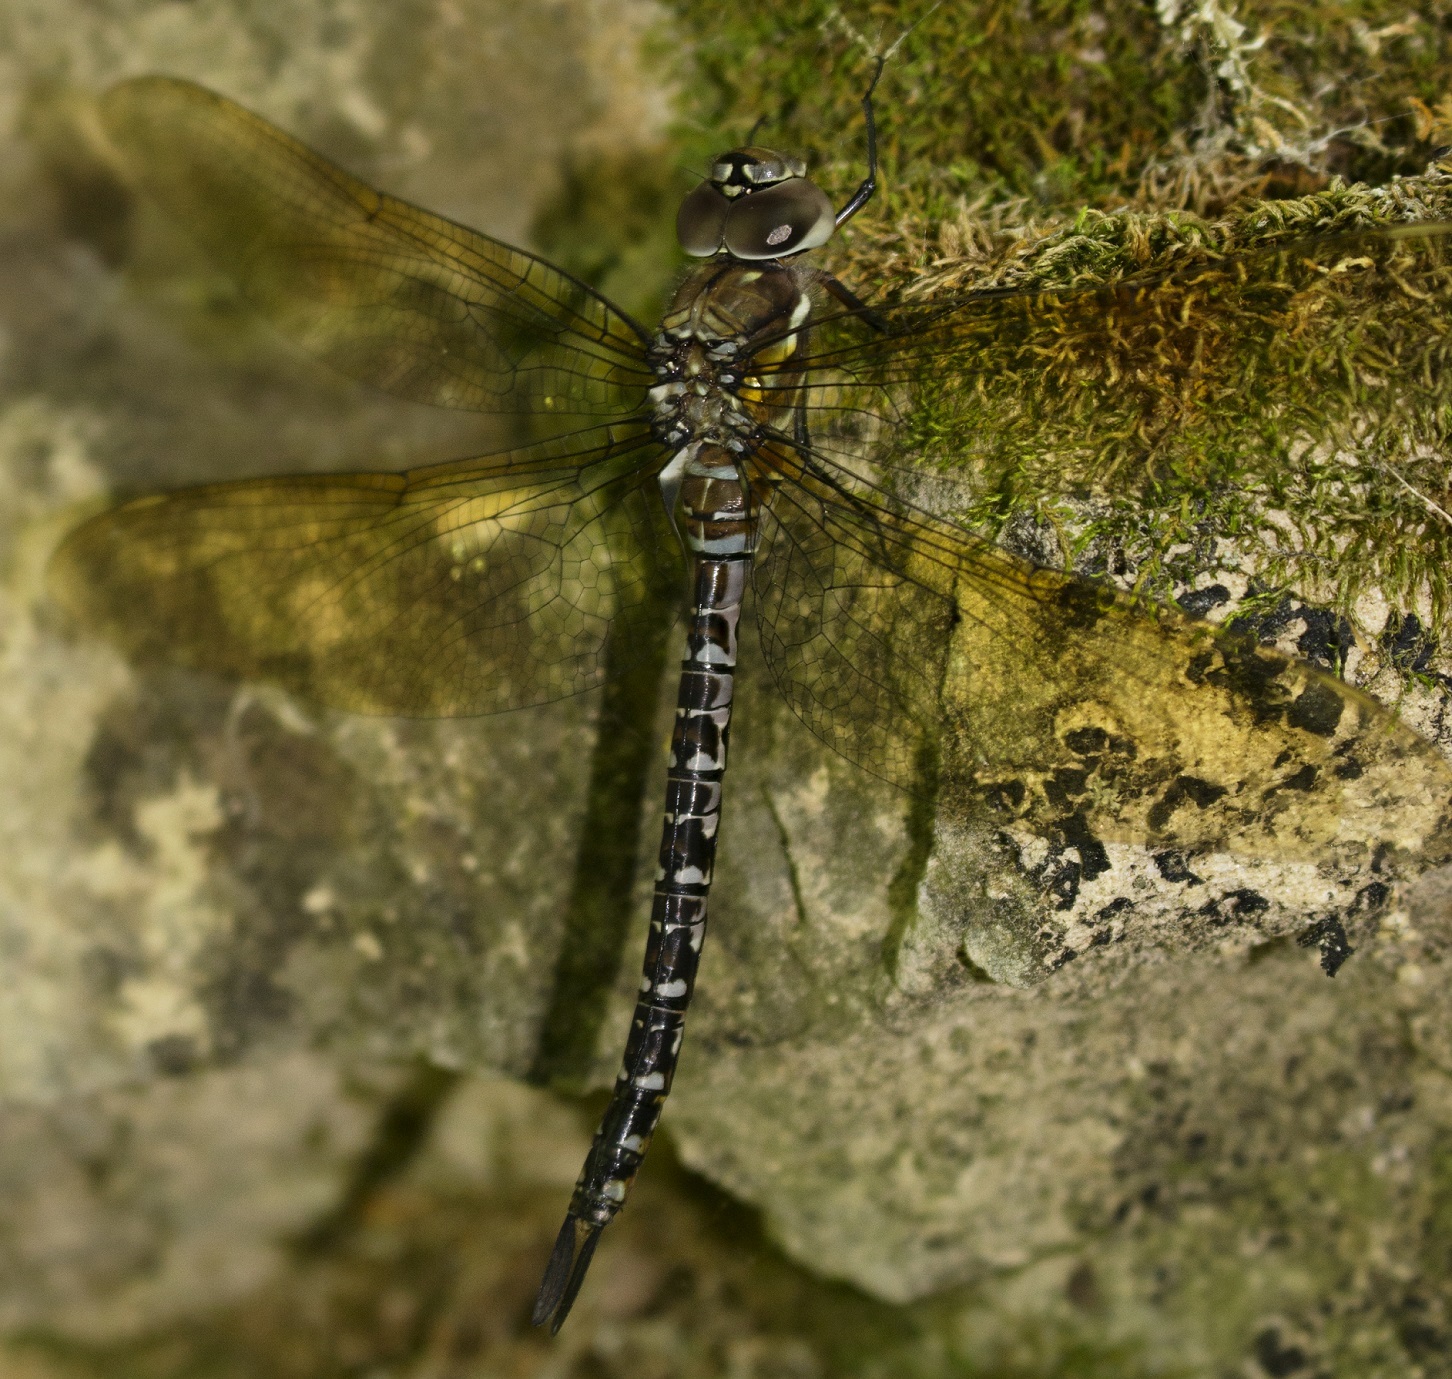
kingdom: Animalia
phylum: Arthropoda
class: Insecta
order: Odonata
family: Aeshnidae
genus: Rhionaeschna
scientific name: Rhionaeschna mutata
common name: Spatterdock darner
